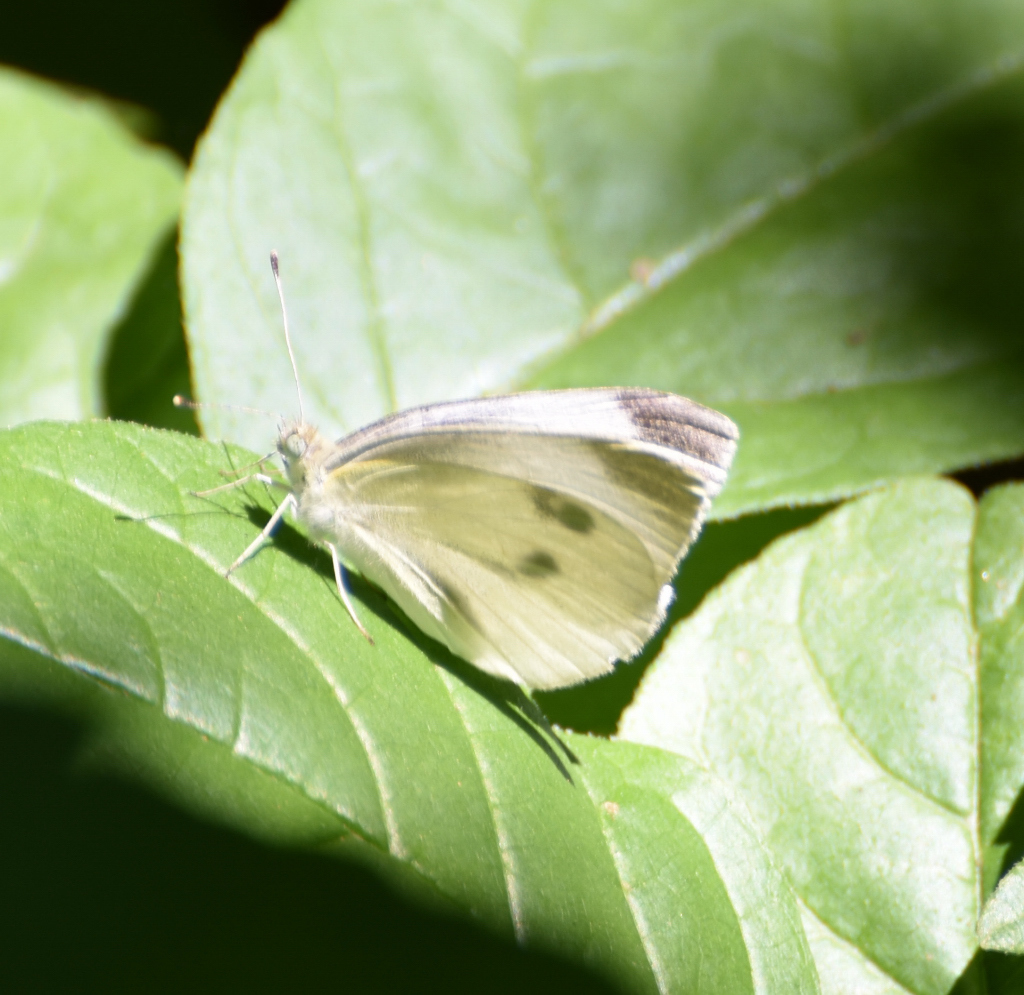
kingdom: Animalia
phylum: Arthropoda
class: Insecta
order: Lepidoptera
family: Pieridae
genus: Pieris
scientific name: Pieris rapae
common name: Small white
